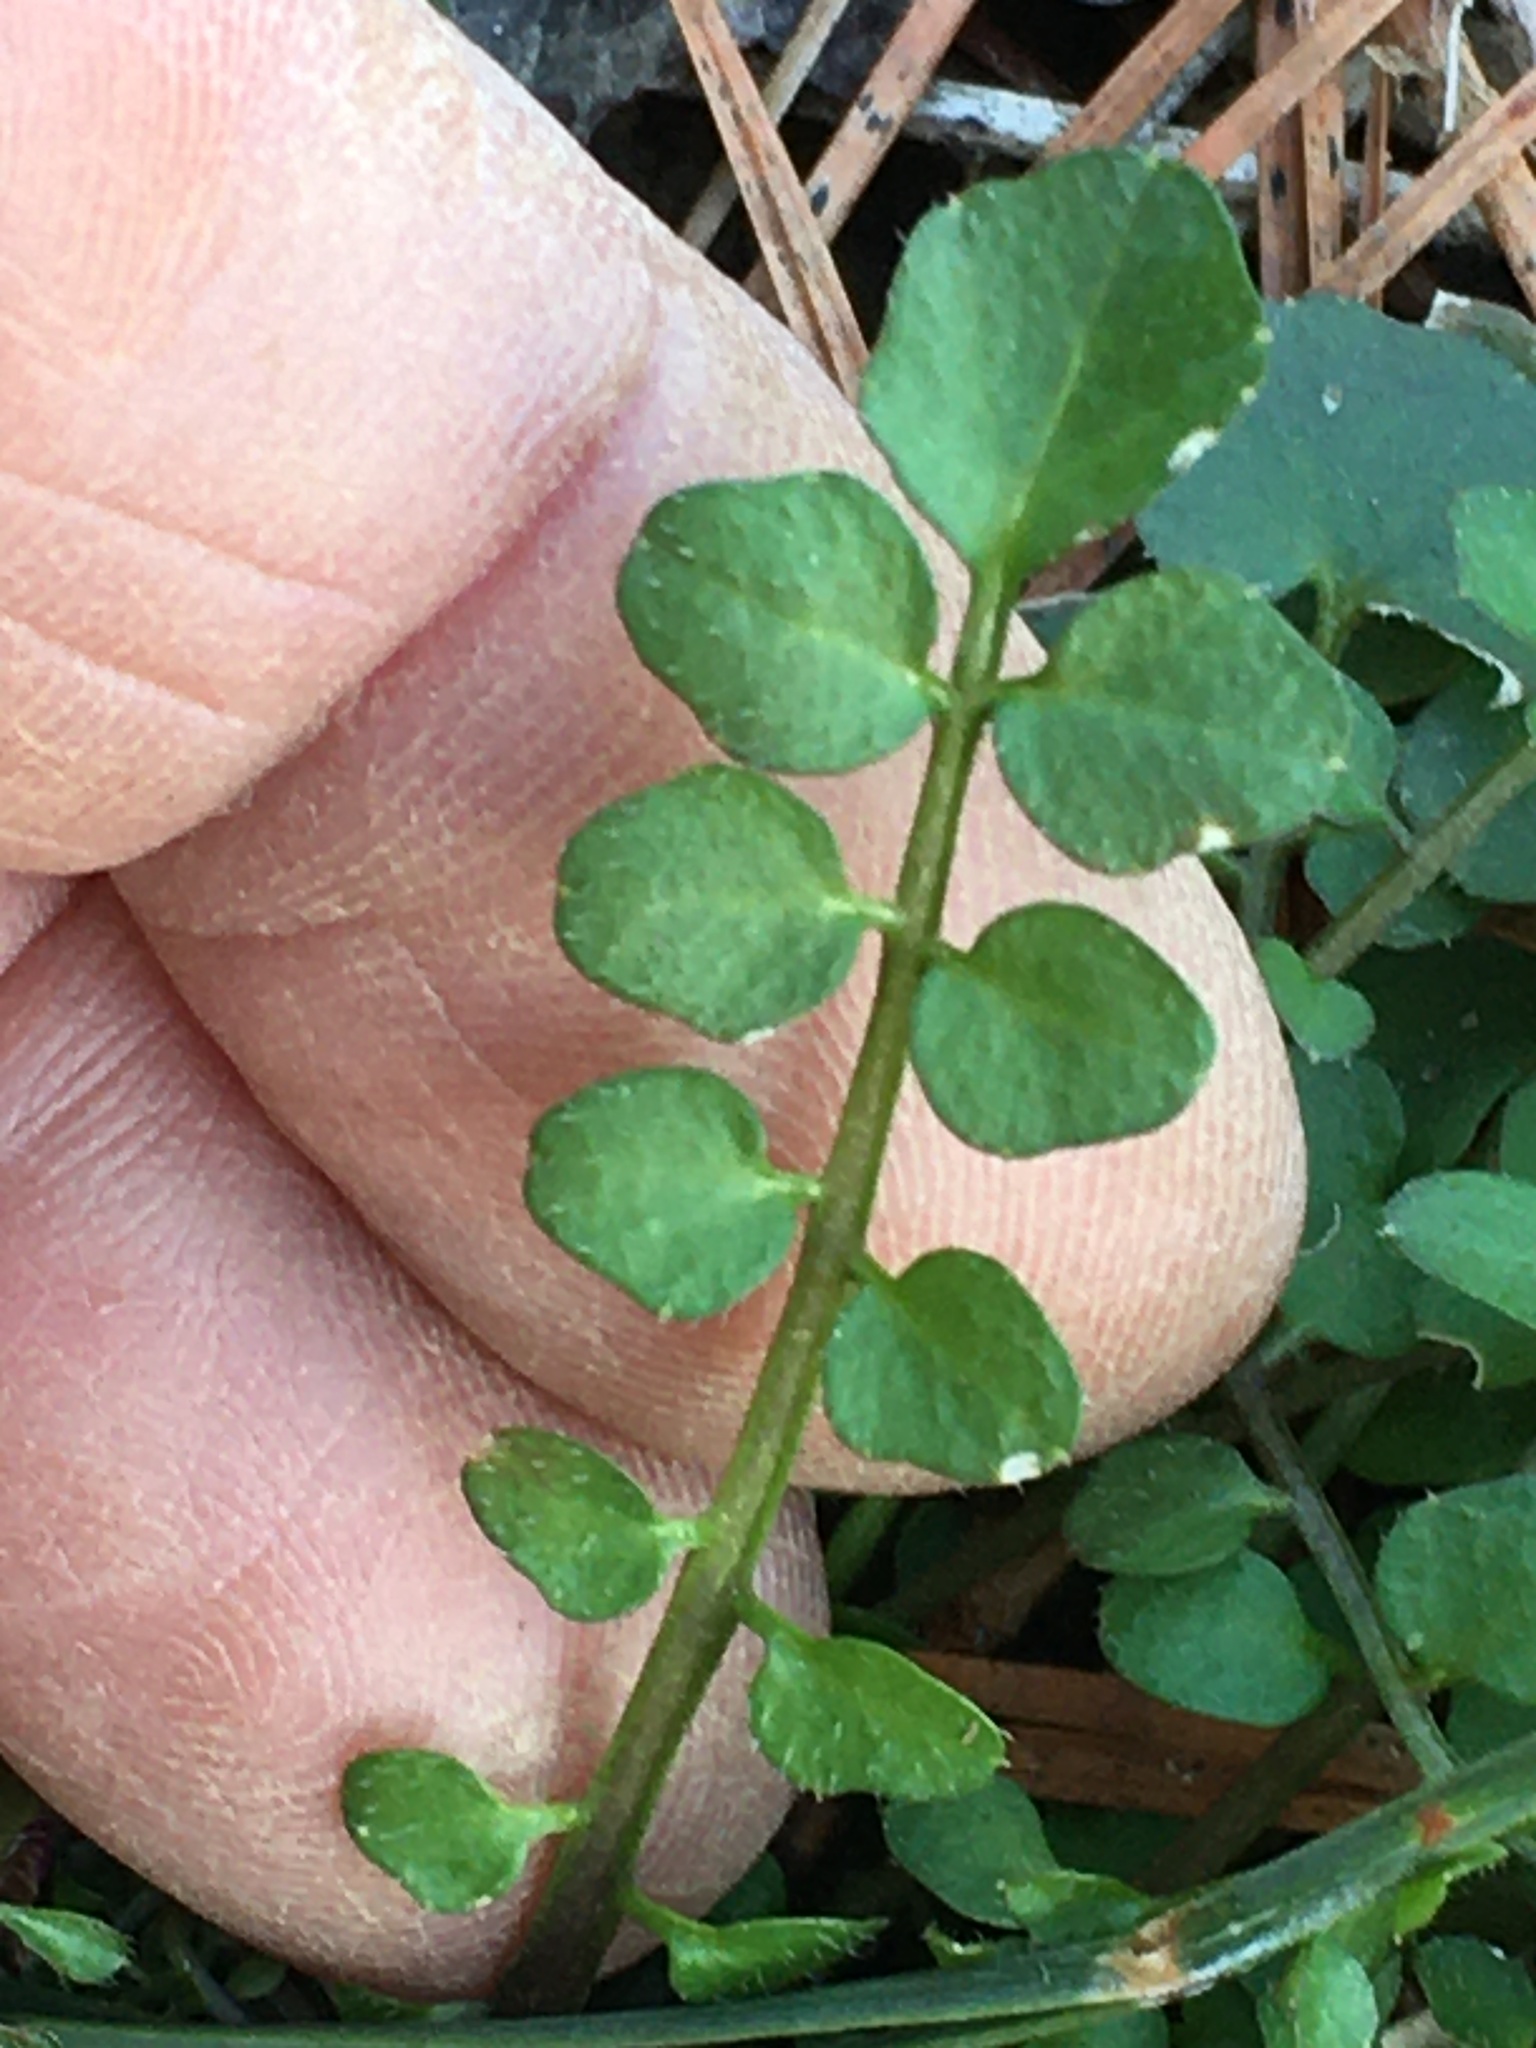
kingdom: Plantae
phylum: Tracheophyta
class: Magnoliopsida
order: Brassicales
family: Brassicaceae
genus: Cardamine
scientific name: Cardamine hirsuta
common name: Hairy bittercress
